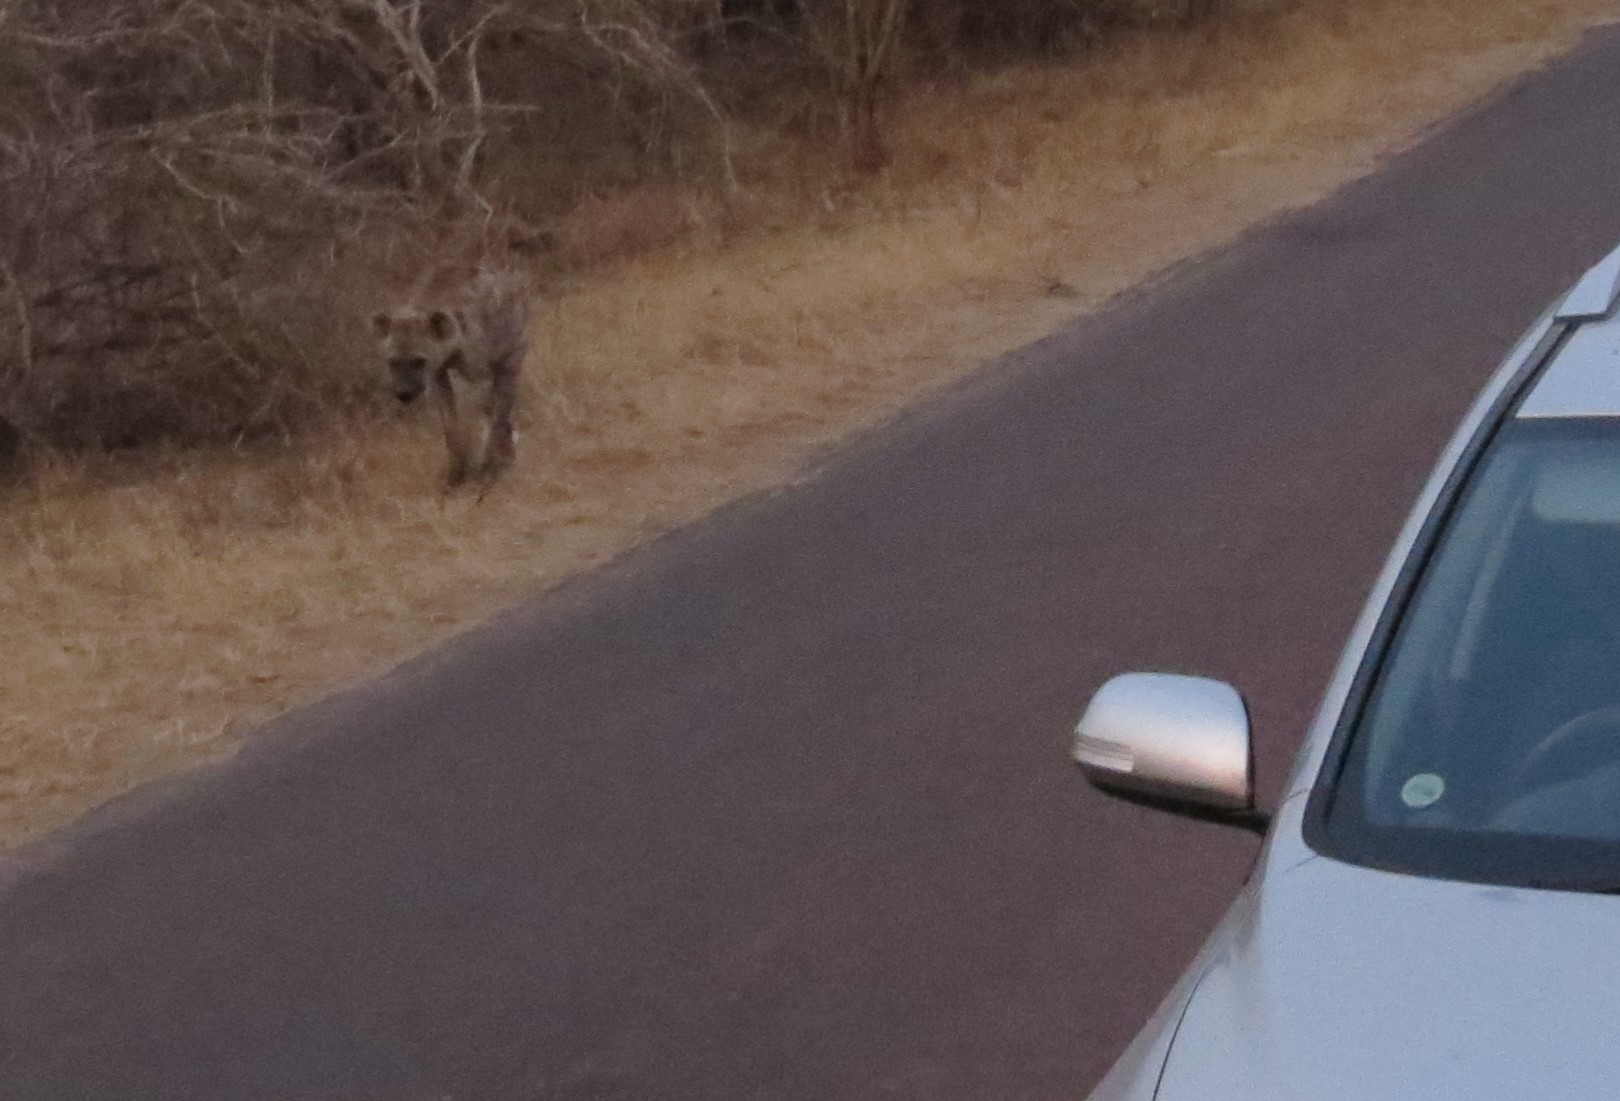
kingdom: Animalia
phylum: Chordata
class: Mammalia
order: Carnivora
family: Hyaenidae
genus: Crocuta
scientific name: Crocuta crocuta
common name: Spotted hyaena
